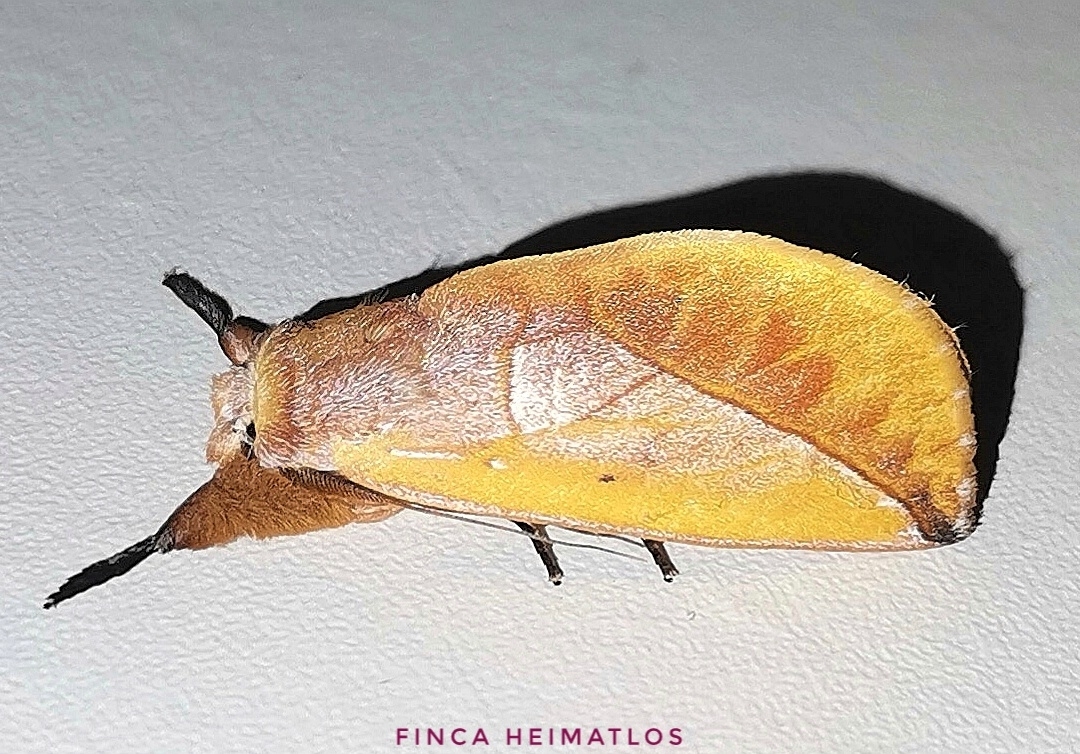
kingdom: Animalia
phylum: Arthropoda
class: Insecta
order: Lepidoptera
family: Notodontidae
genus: Hemiceras
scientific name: Hemiceras flava
